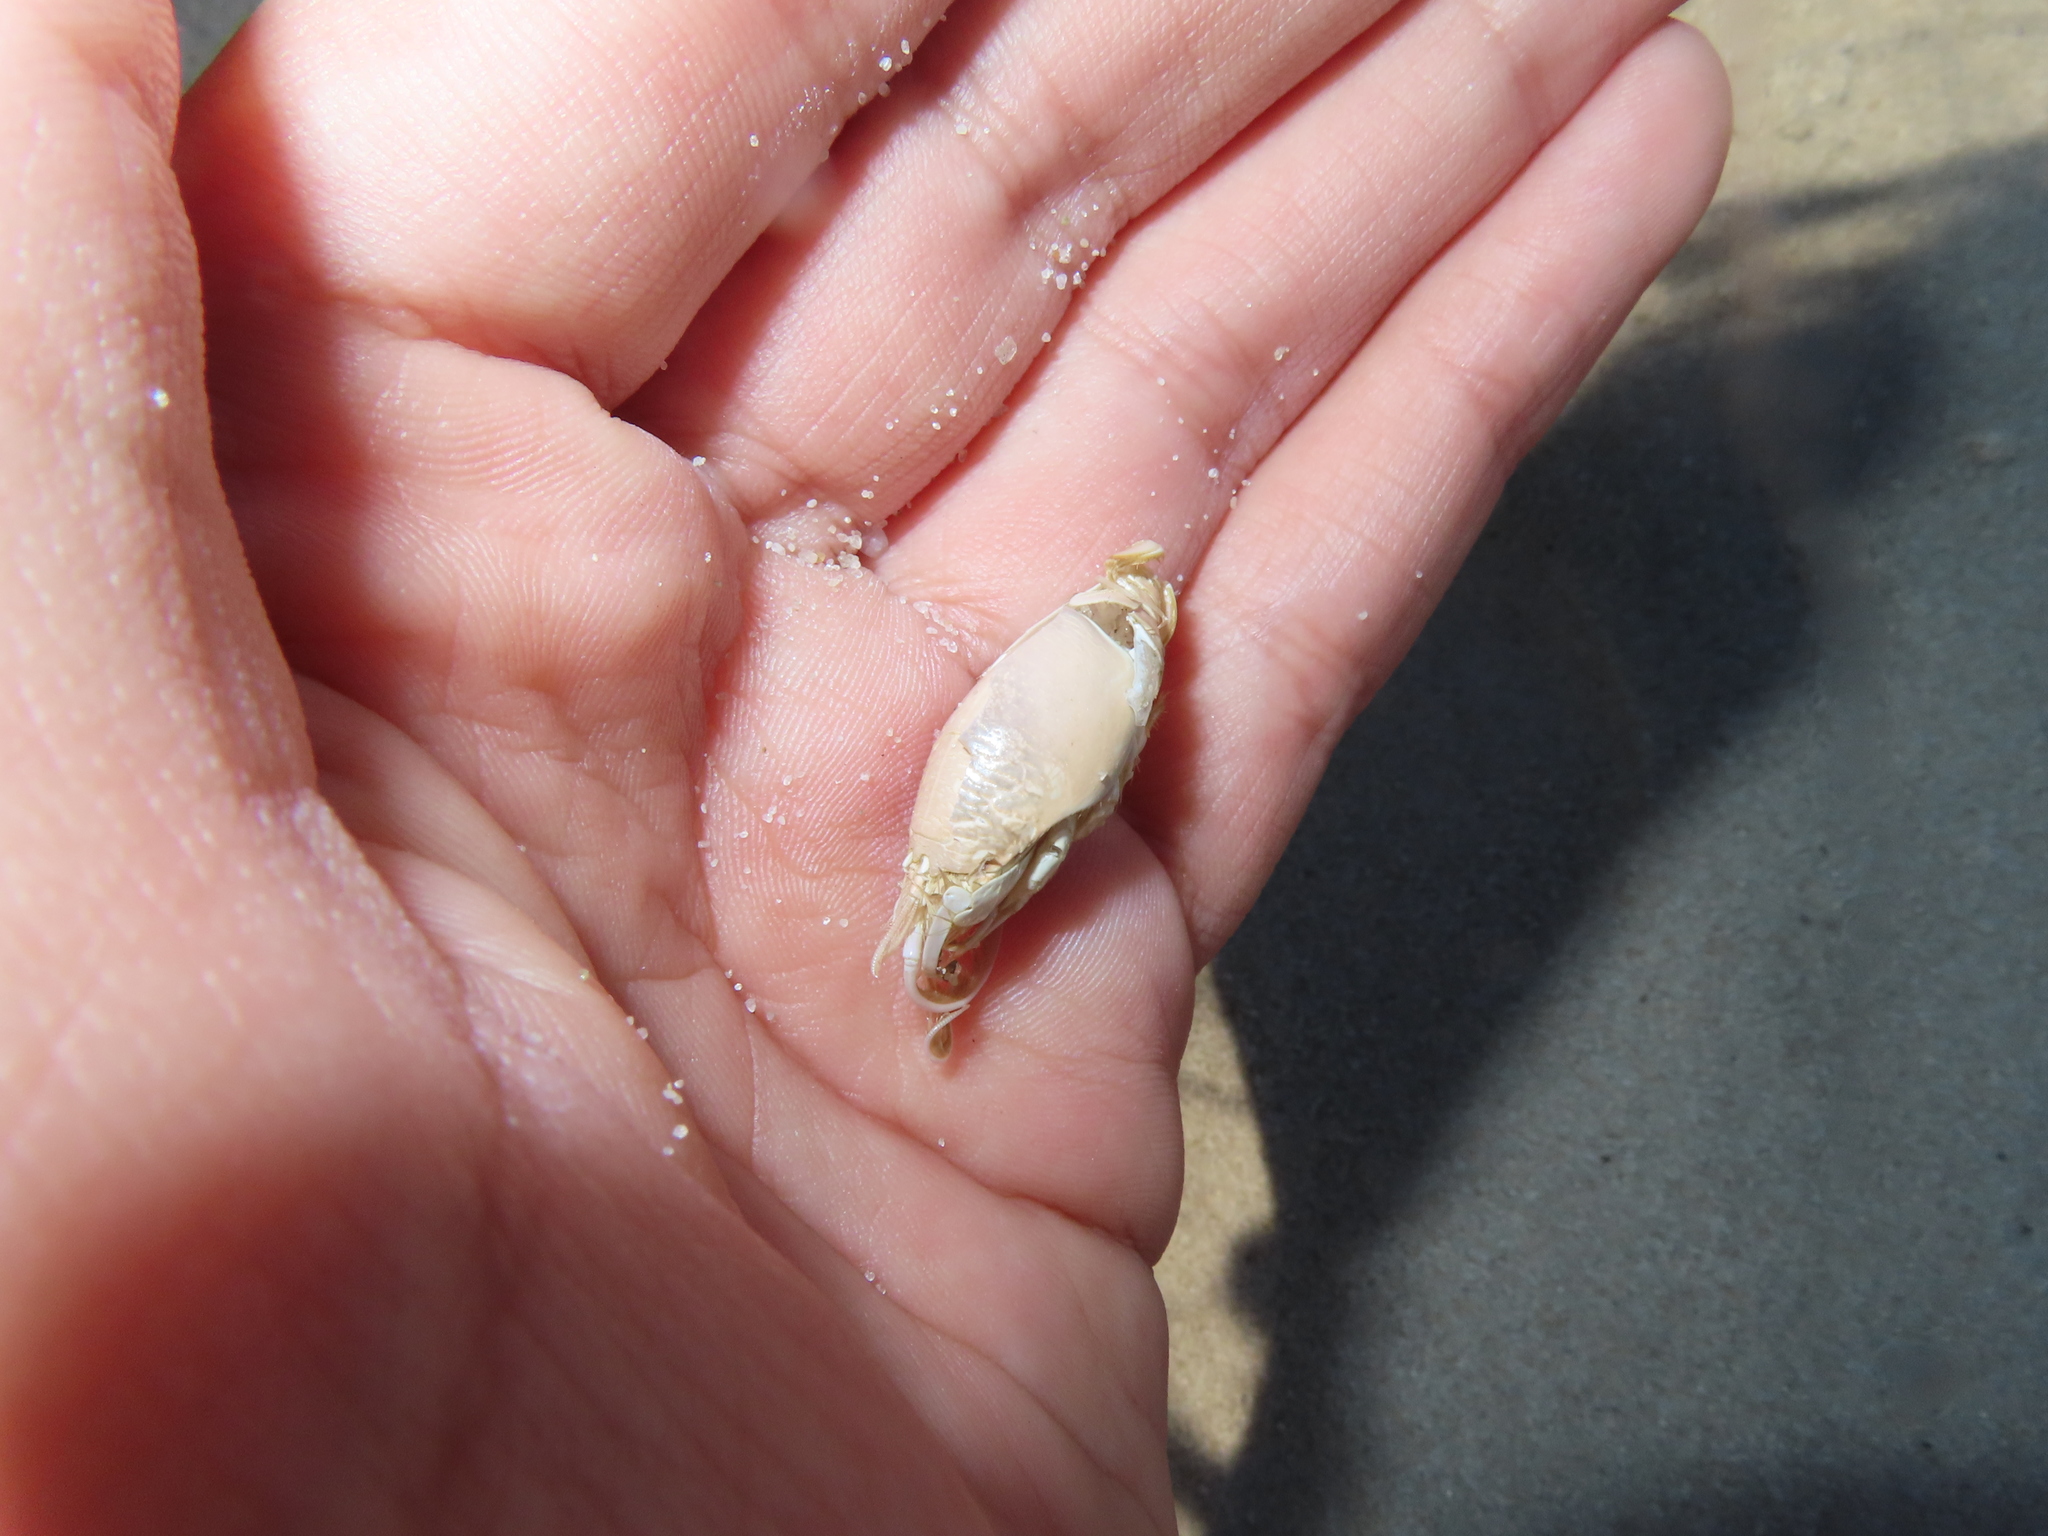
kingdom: Animalia
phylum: Arthropoda
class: Malacostraca
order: Decapoda
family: Hippidae
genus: Emerita
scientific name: Emerita talpoida
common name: Atlantic sand crab
